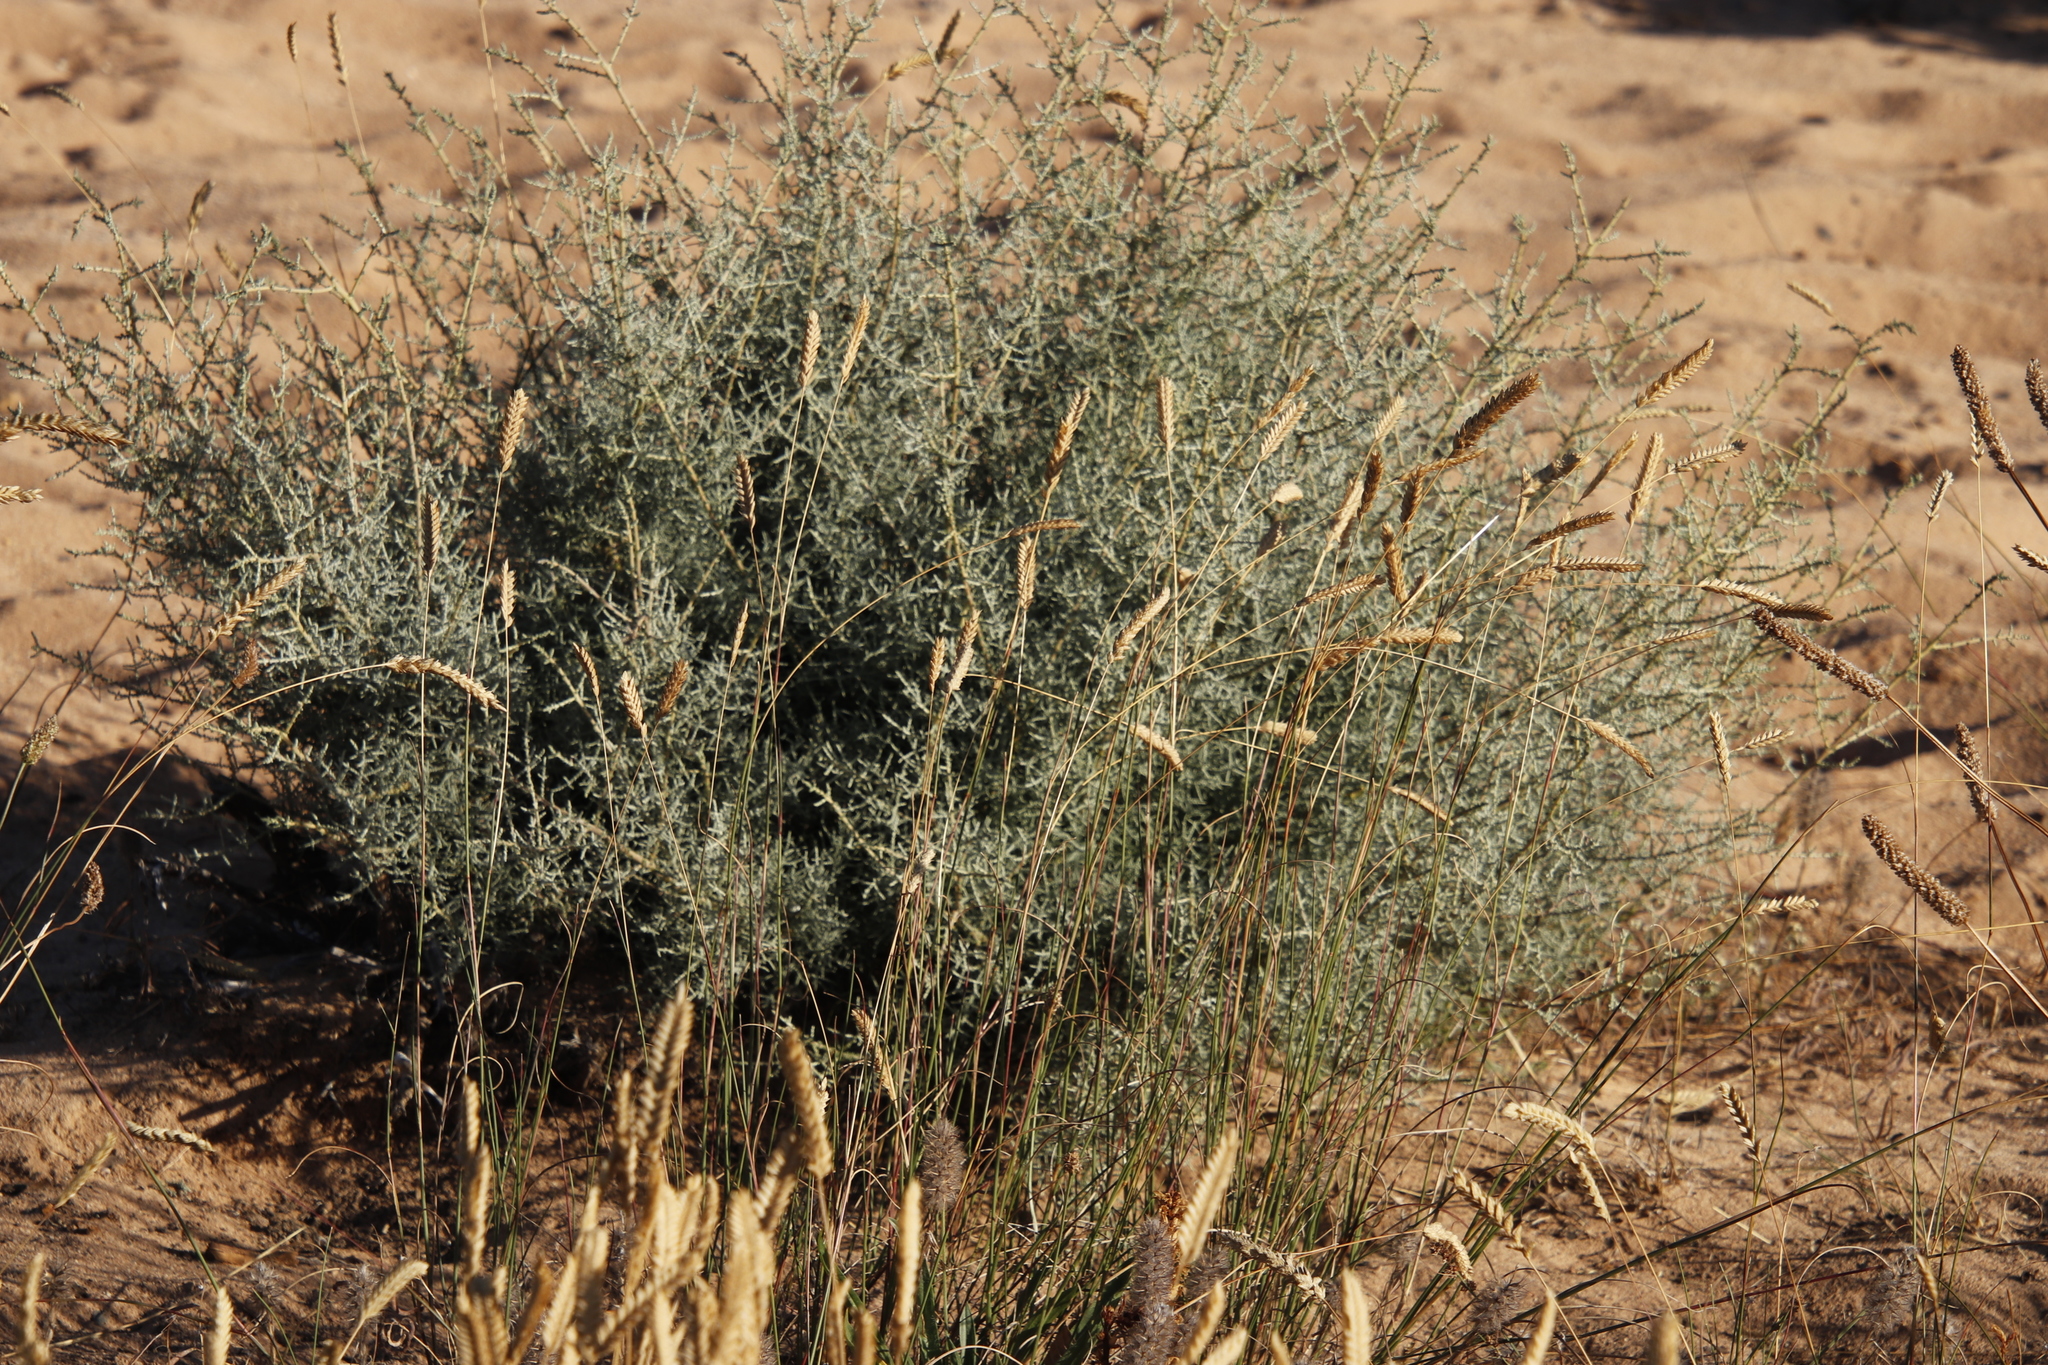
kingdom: Plantae
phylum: Tracheophyta
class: Magnoliopsida
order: Asterales
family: Asteraceae
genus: Seriphium
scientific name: Seriphium plumosum
